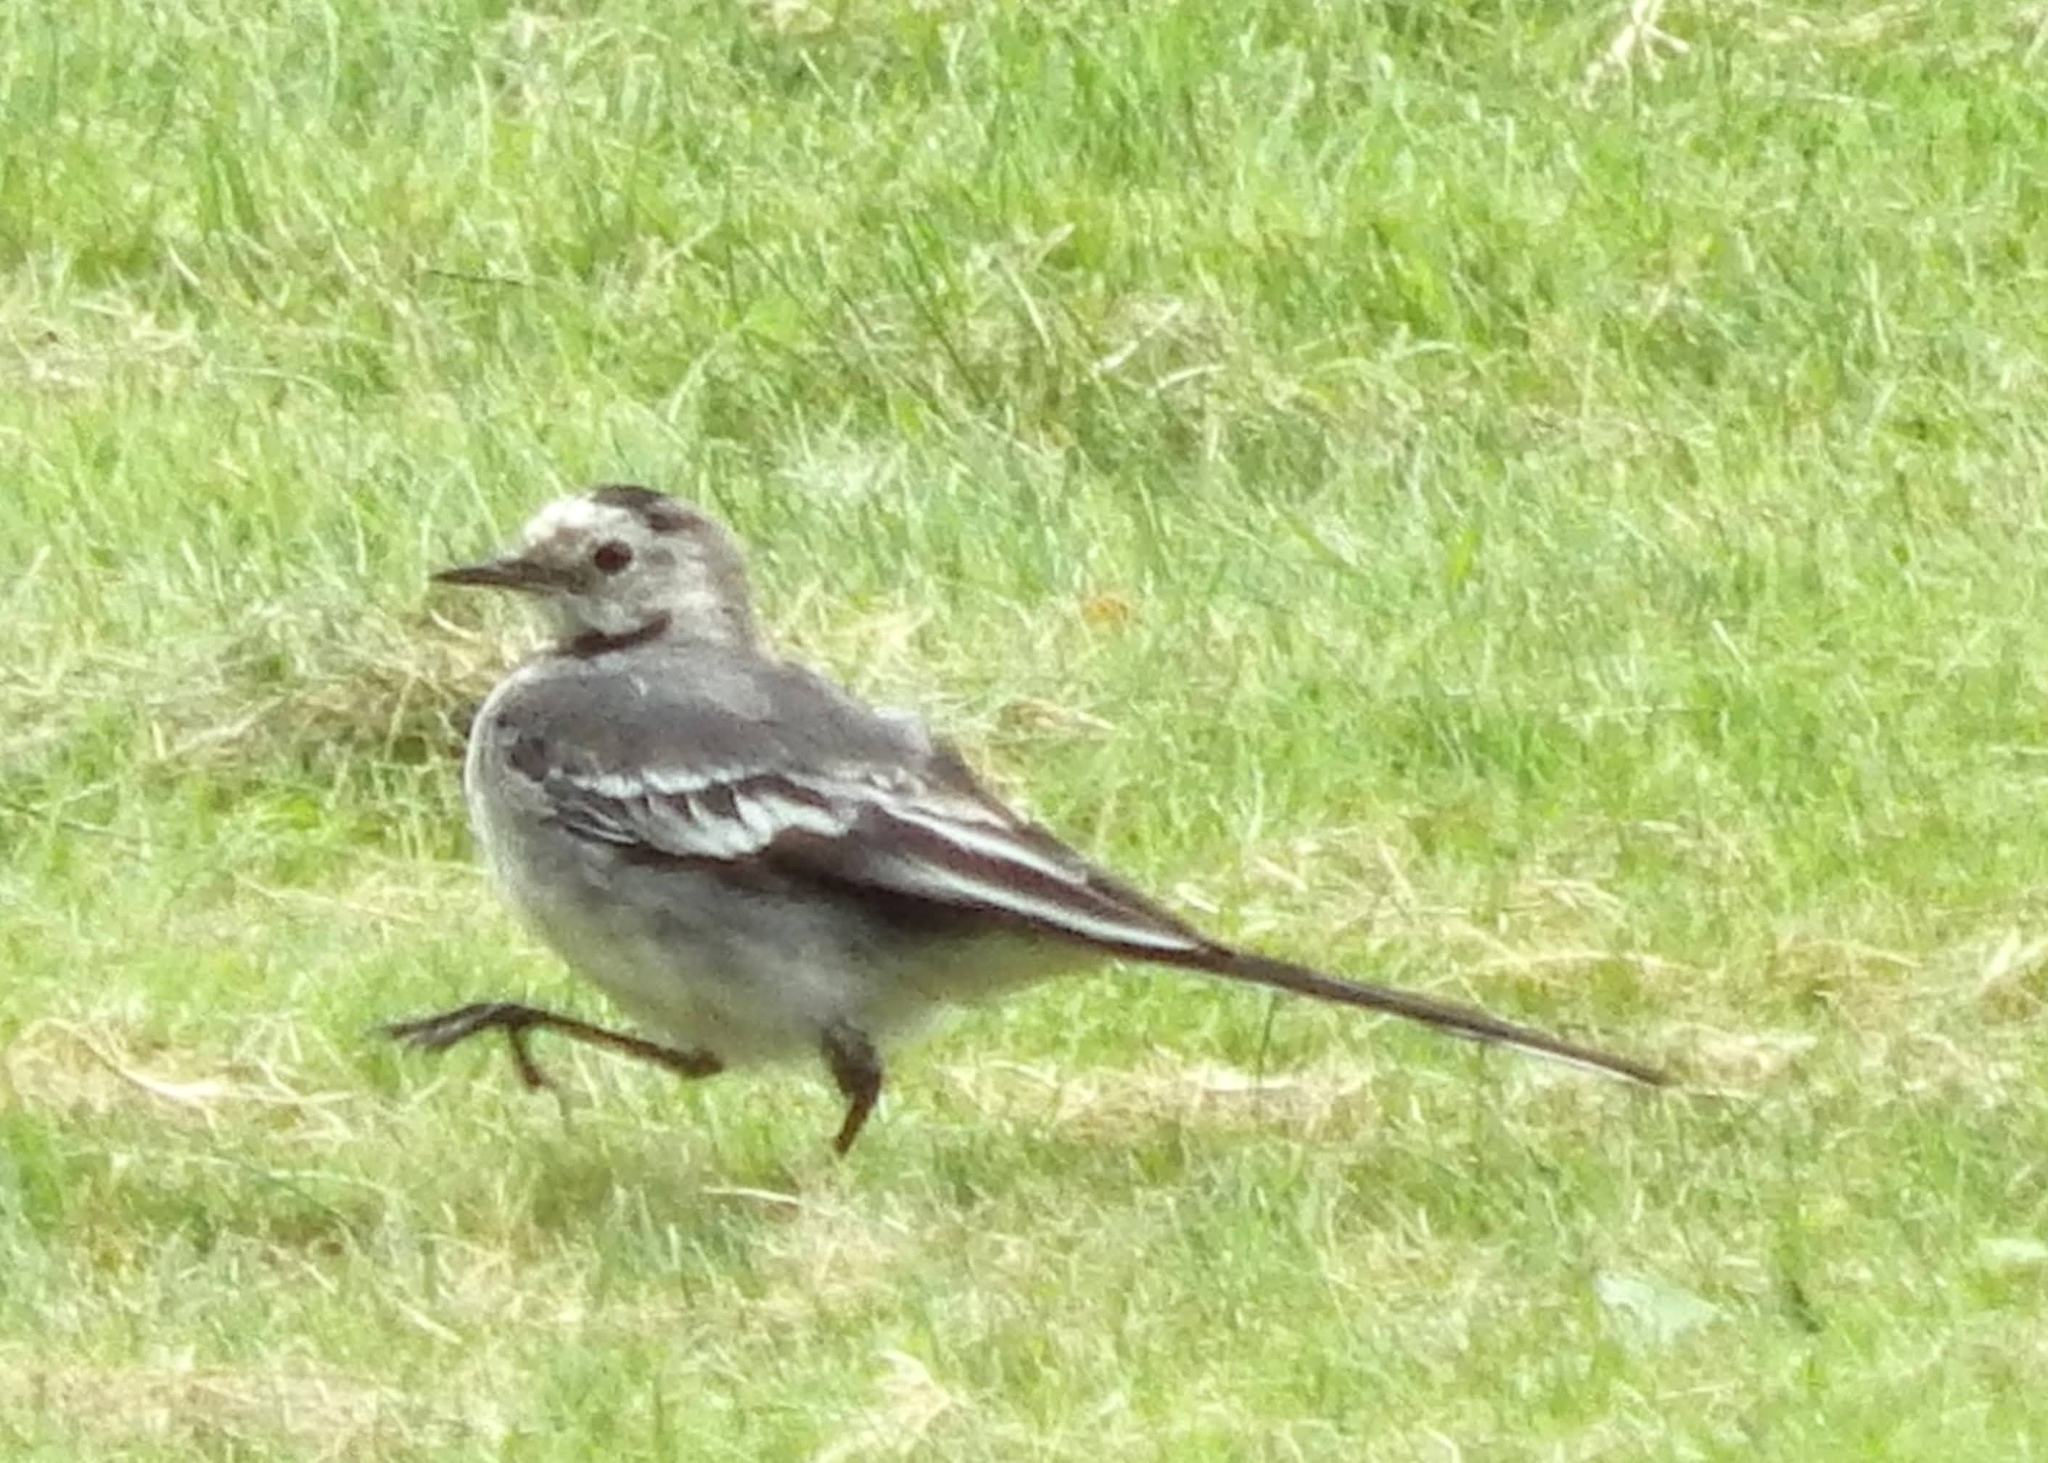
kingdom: Animalia
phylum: Chordata
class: Aves
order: Passeriformes
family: Motacillidae
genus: Motacilla
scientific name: Motacilla alba
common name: White wagtail
